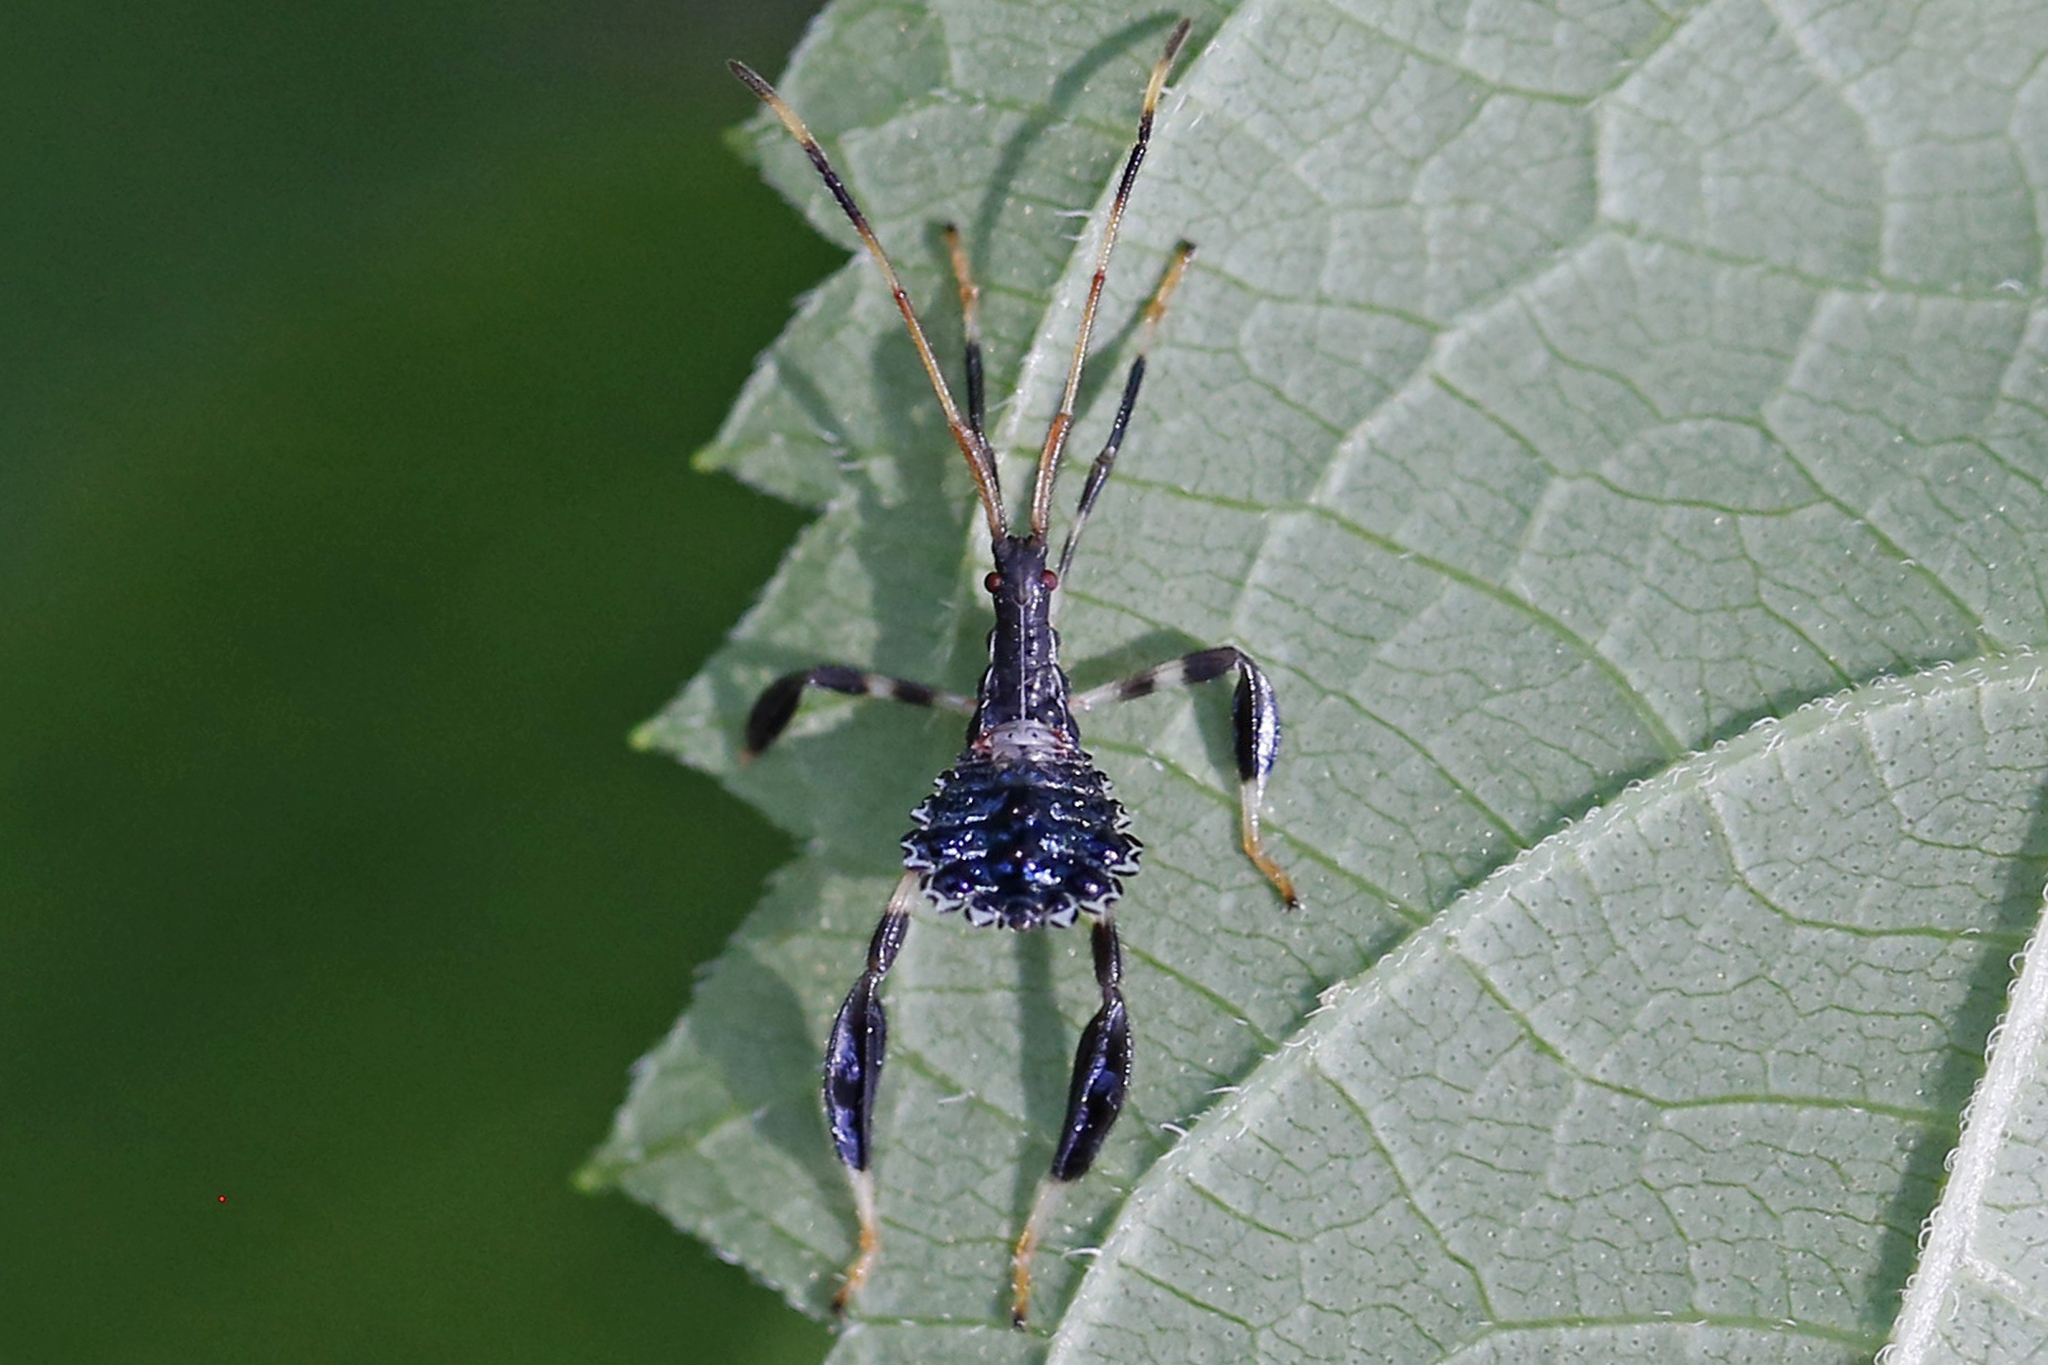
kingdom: Animalia
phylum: Arthropoda
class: Insecta
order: Hemiptera
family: Coreidae
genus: Acanthocephala
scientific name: Acanthocephala terminalis
